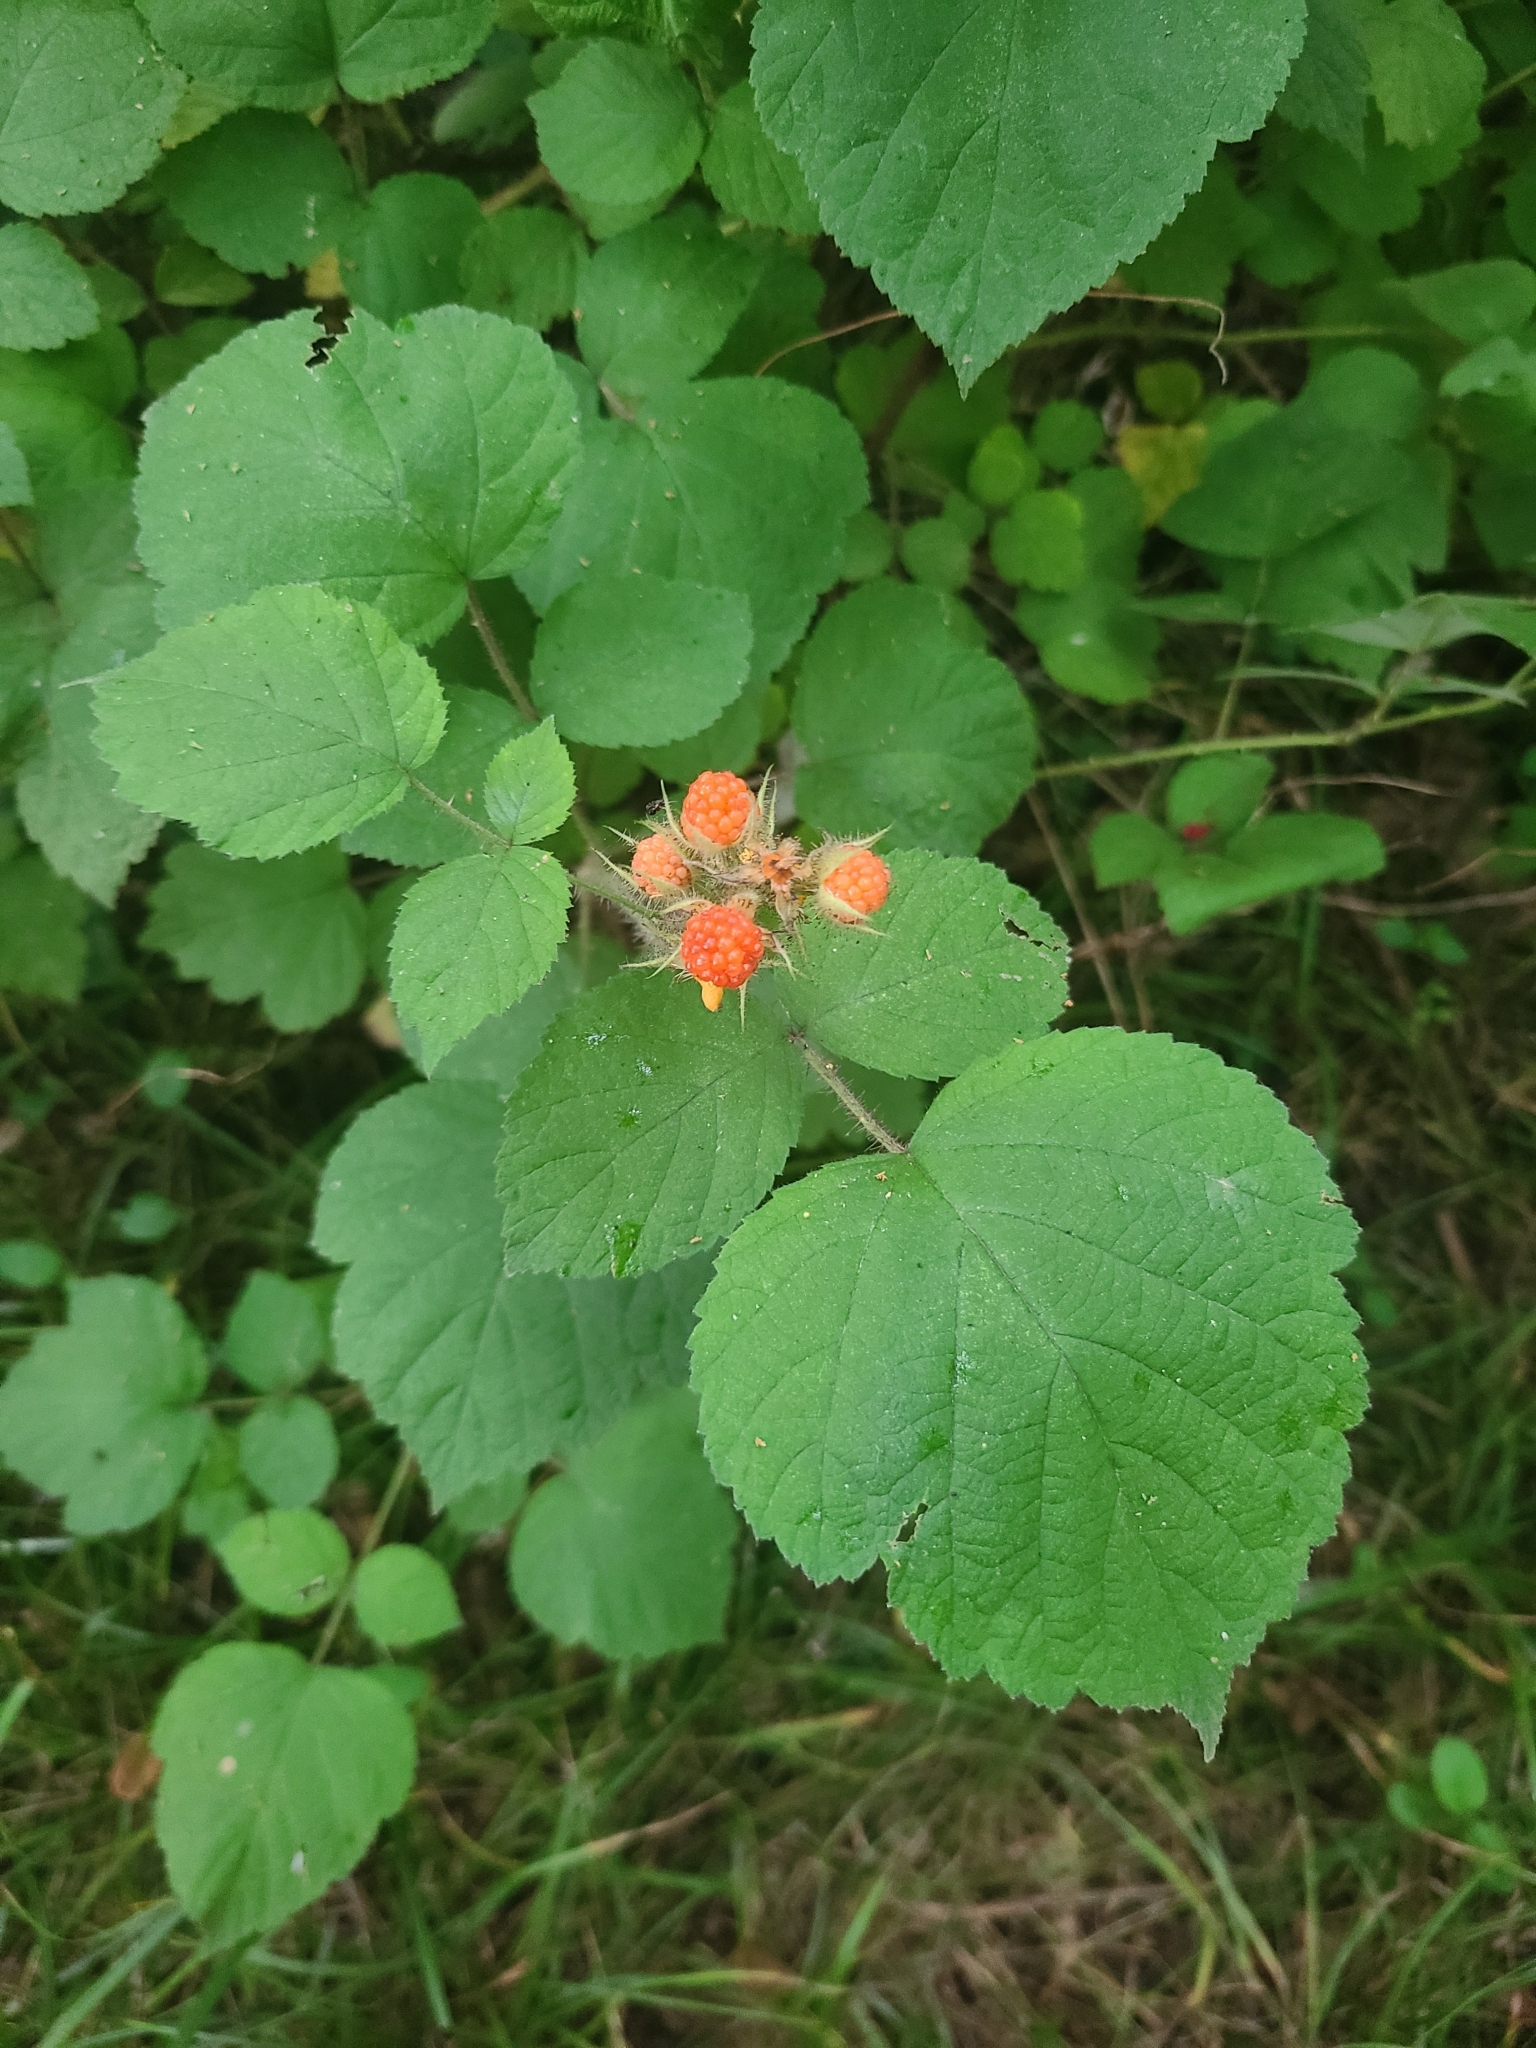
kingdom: Plantae
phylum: Tracheophyta
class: Magnoliopsida
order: Rosales
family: Rosaceae
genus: Rubus
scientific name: Rubus phoenicolasius
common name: Japanese wineberry
